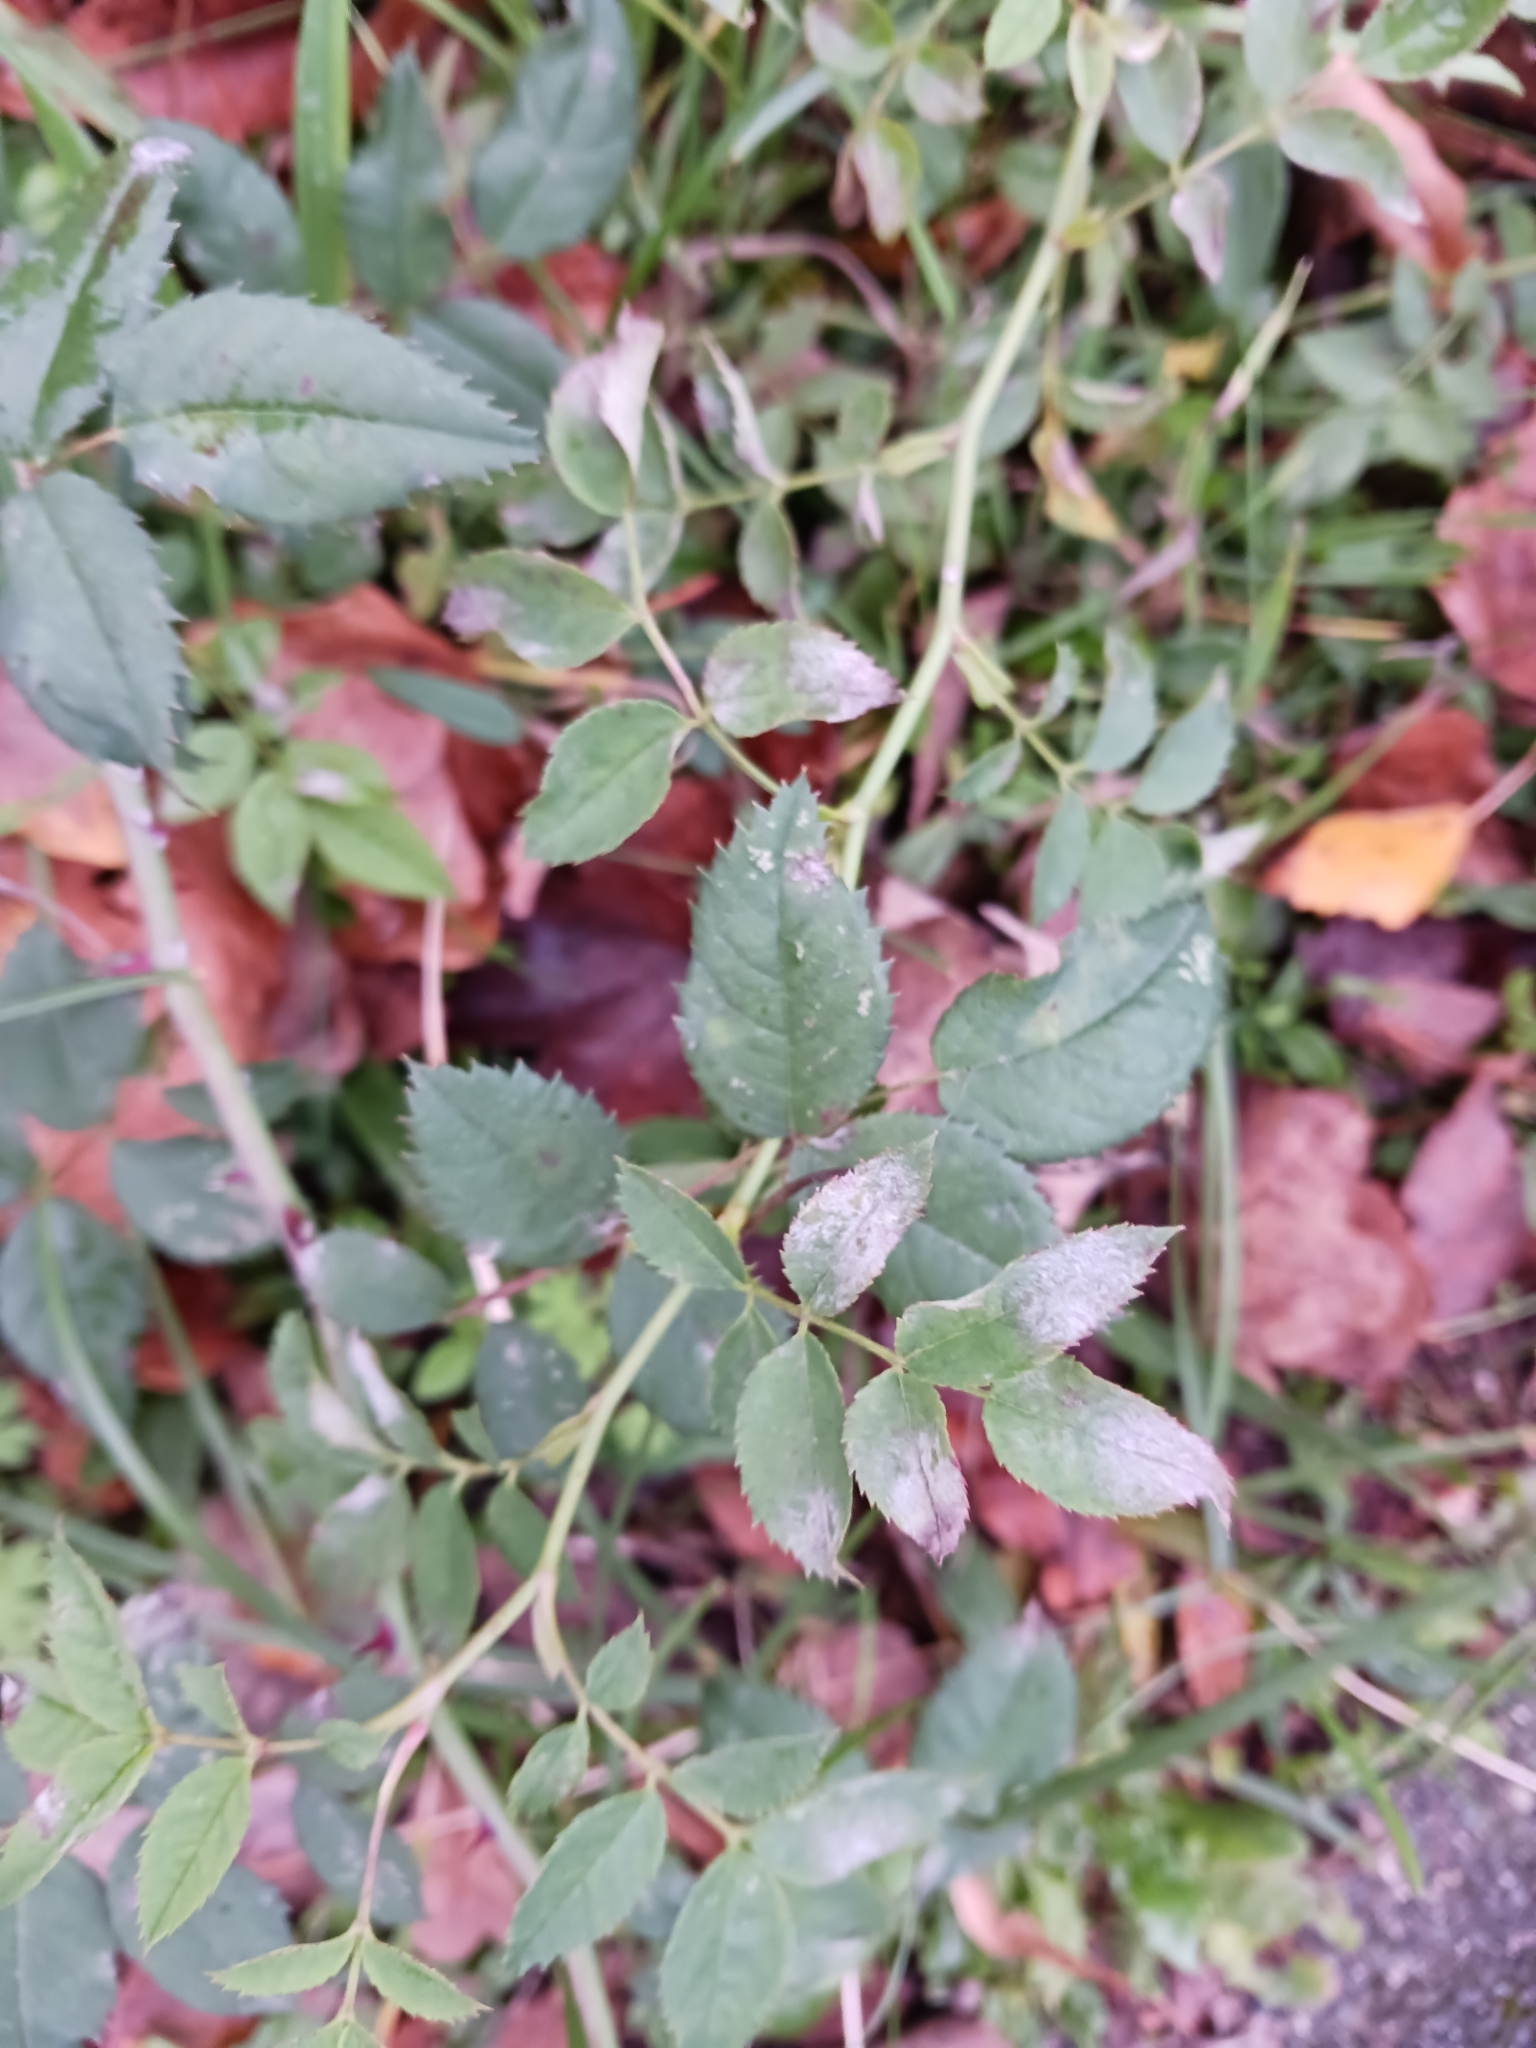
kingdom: Fungi
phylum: Ascomycota
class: Leotiomycetes
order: Helotiales
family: Erysiphaceae
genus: Podosphaera
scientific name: Podosphaera pannosa
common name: Rose mildew
